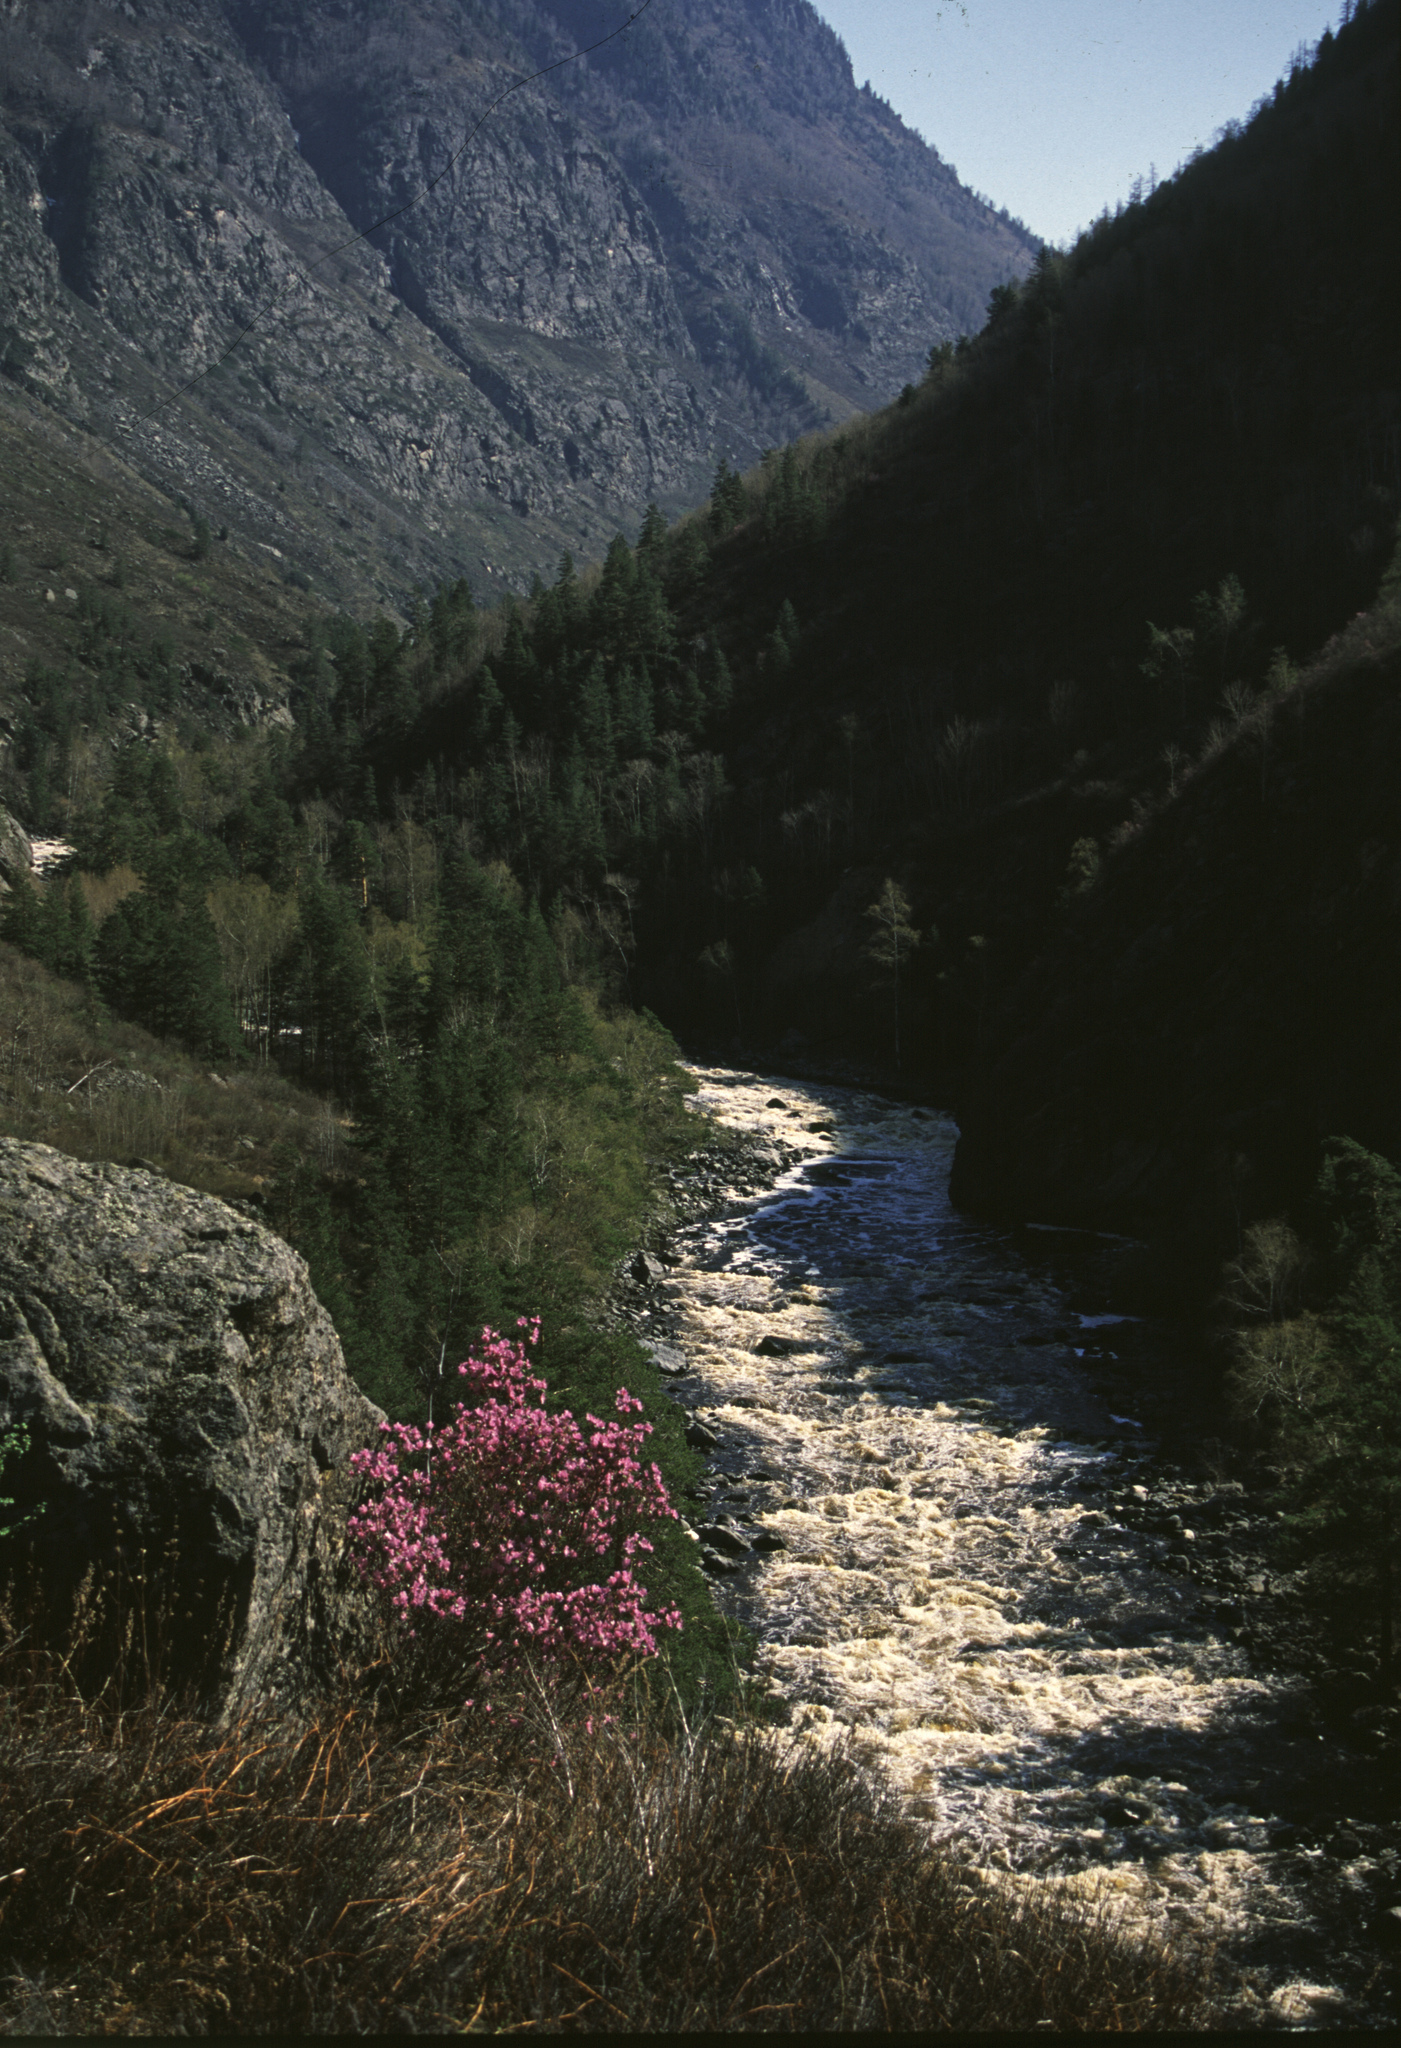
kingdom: Plantae
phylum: Tracheophyta
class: Magnoliopsida
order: Ericales
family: Ericaceae
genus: Rhododendron
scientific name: Rhododendron dauricum
